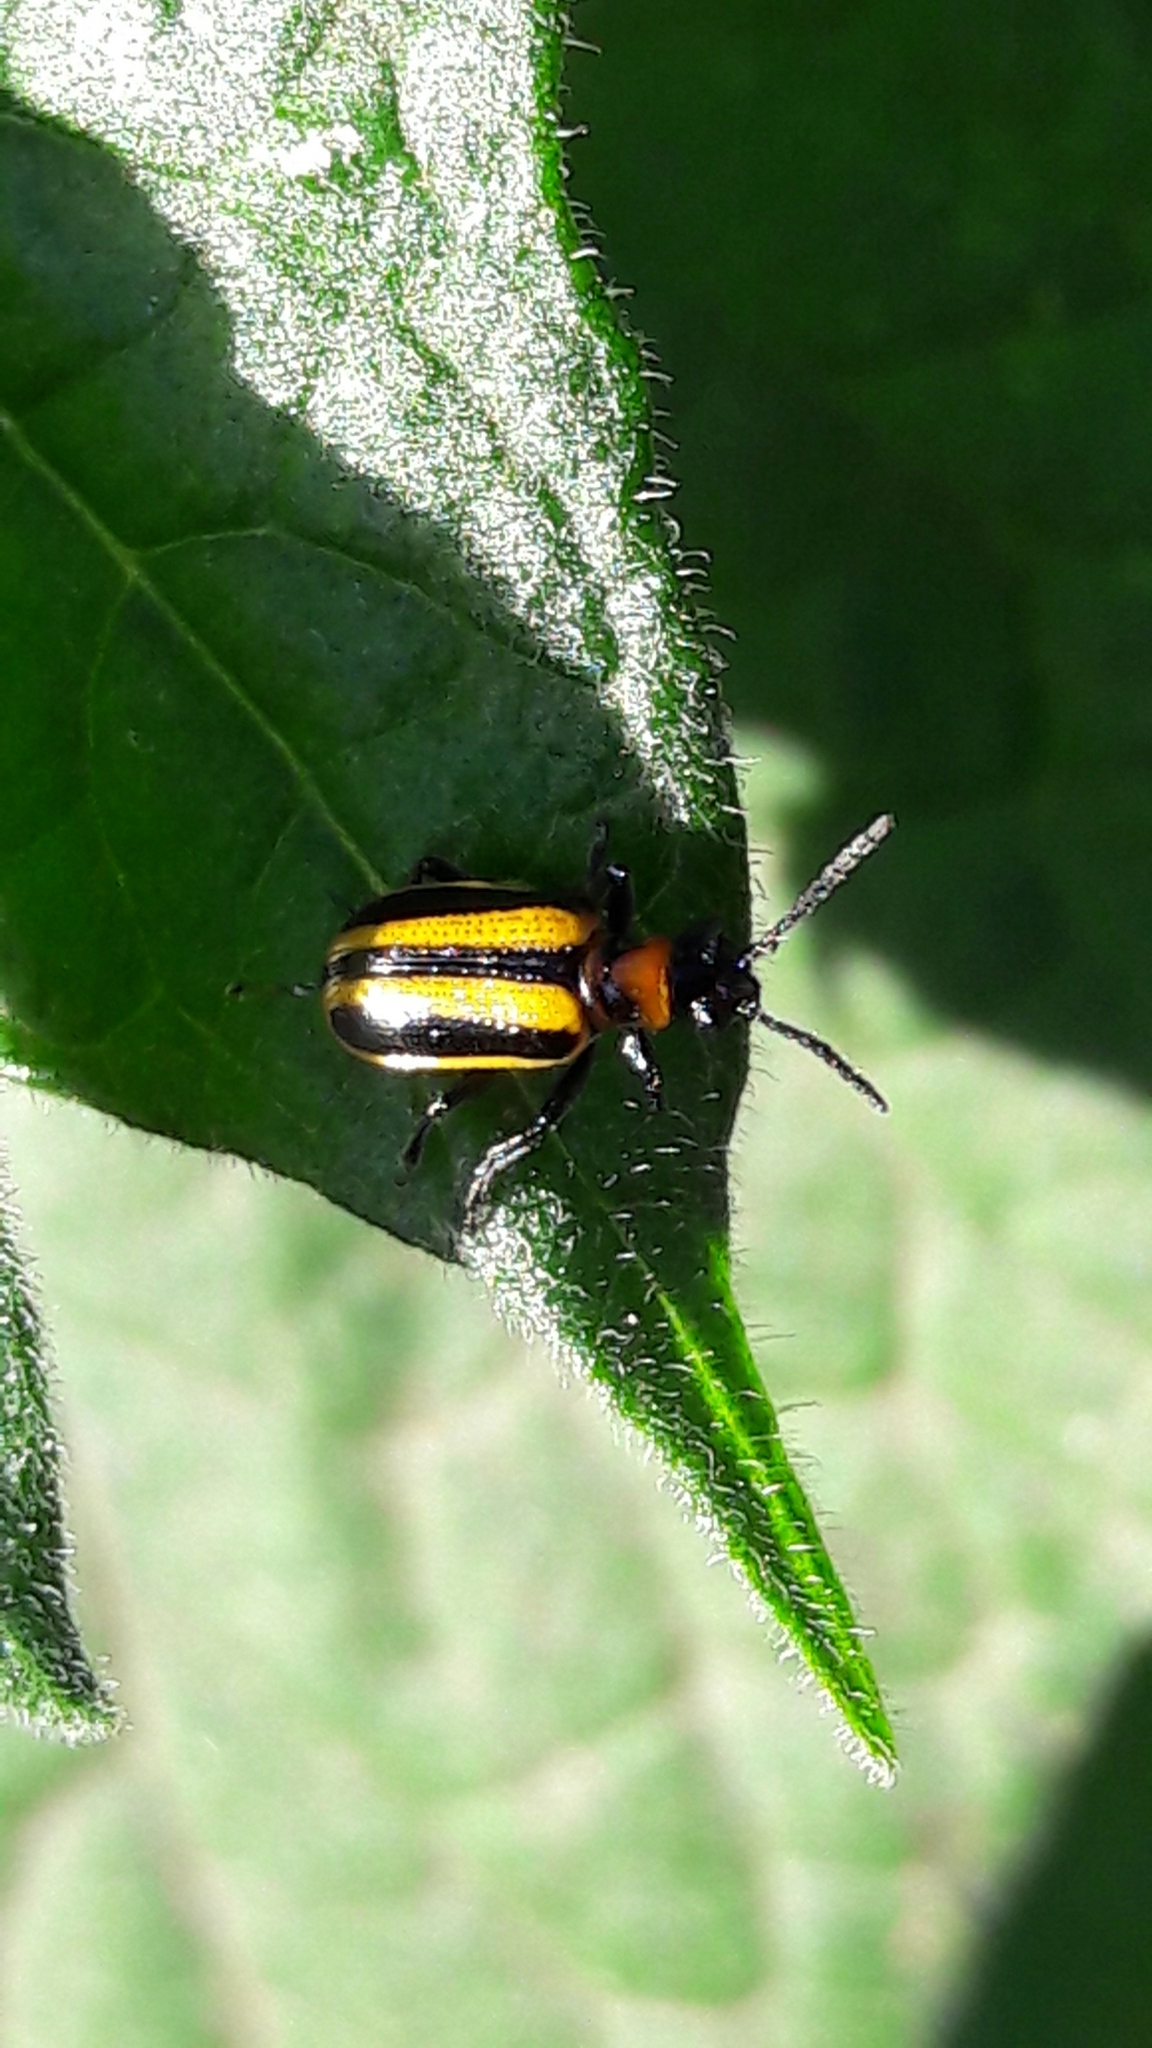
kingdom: Animalia
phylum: Arthropoda
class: Insecta
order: Coleoptera
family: Chrysomelidae
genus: Lema
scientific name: Lema confusa
